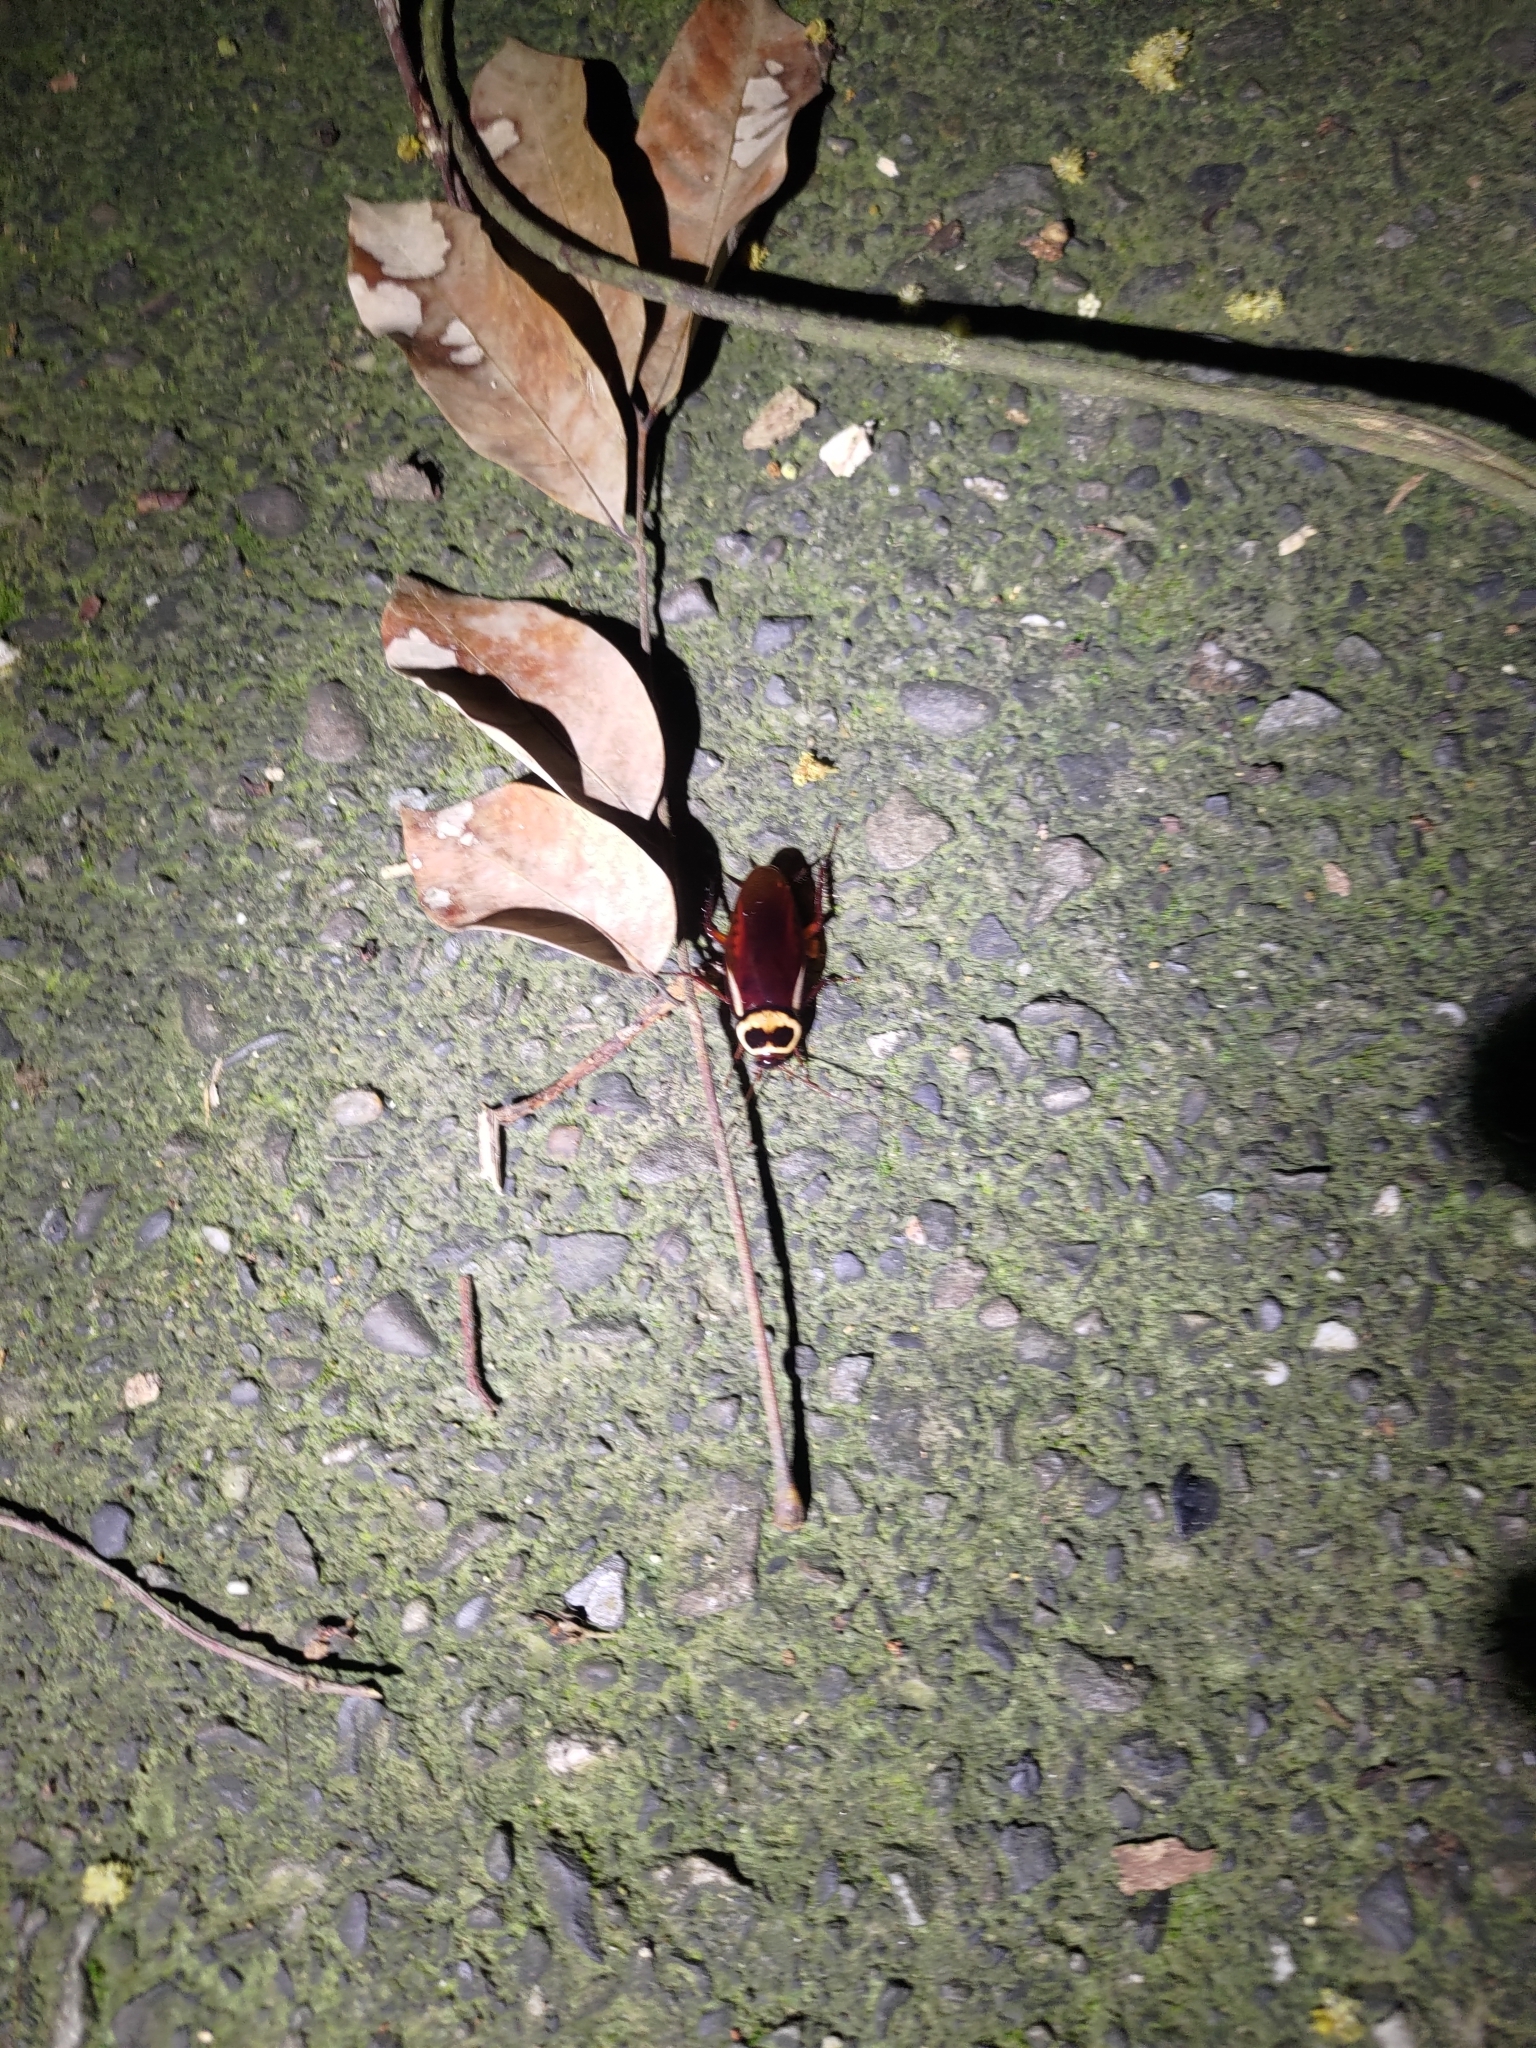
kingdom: Animalia
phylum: Arthropoda
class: Insecta
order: Blattodea
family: Blattidae
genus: Periplaneta
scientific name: Periplaneta australasiae
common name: Australian cockroach
